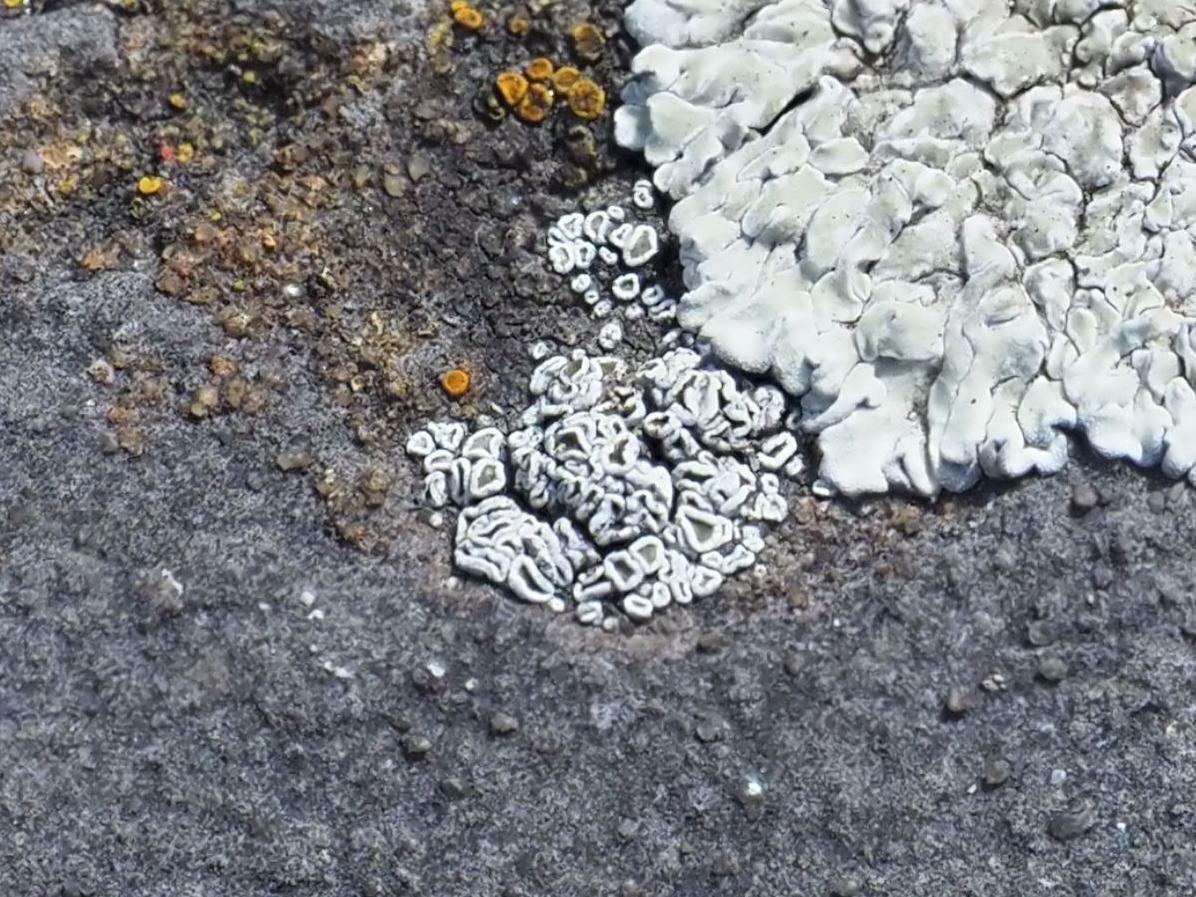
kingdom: Fungi
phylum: Ascomycota
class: Lecanoromycetes
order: Lecanorales
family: Lecanoraceae
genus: Polyozosia
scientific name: Polyozosia dispersa
